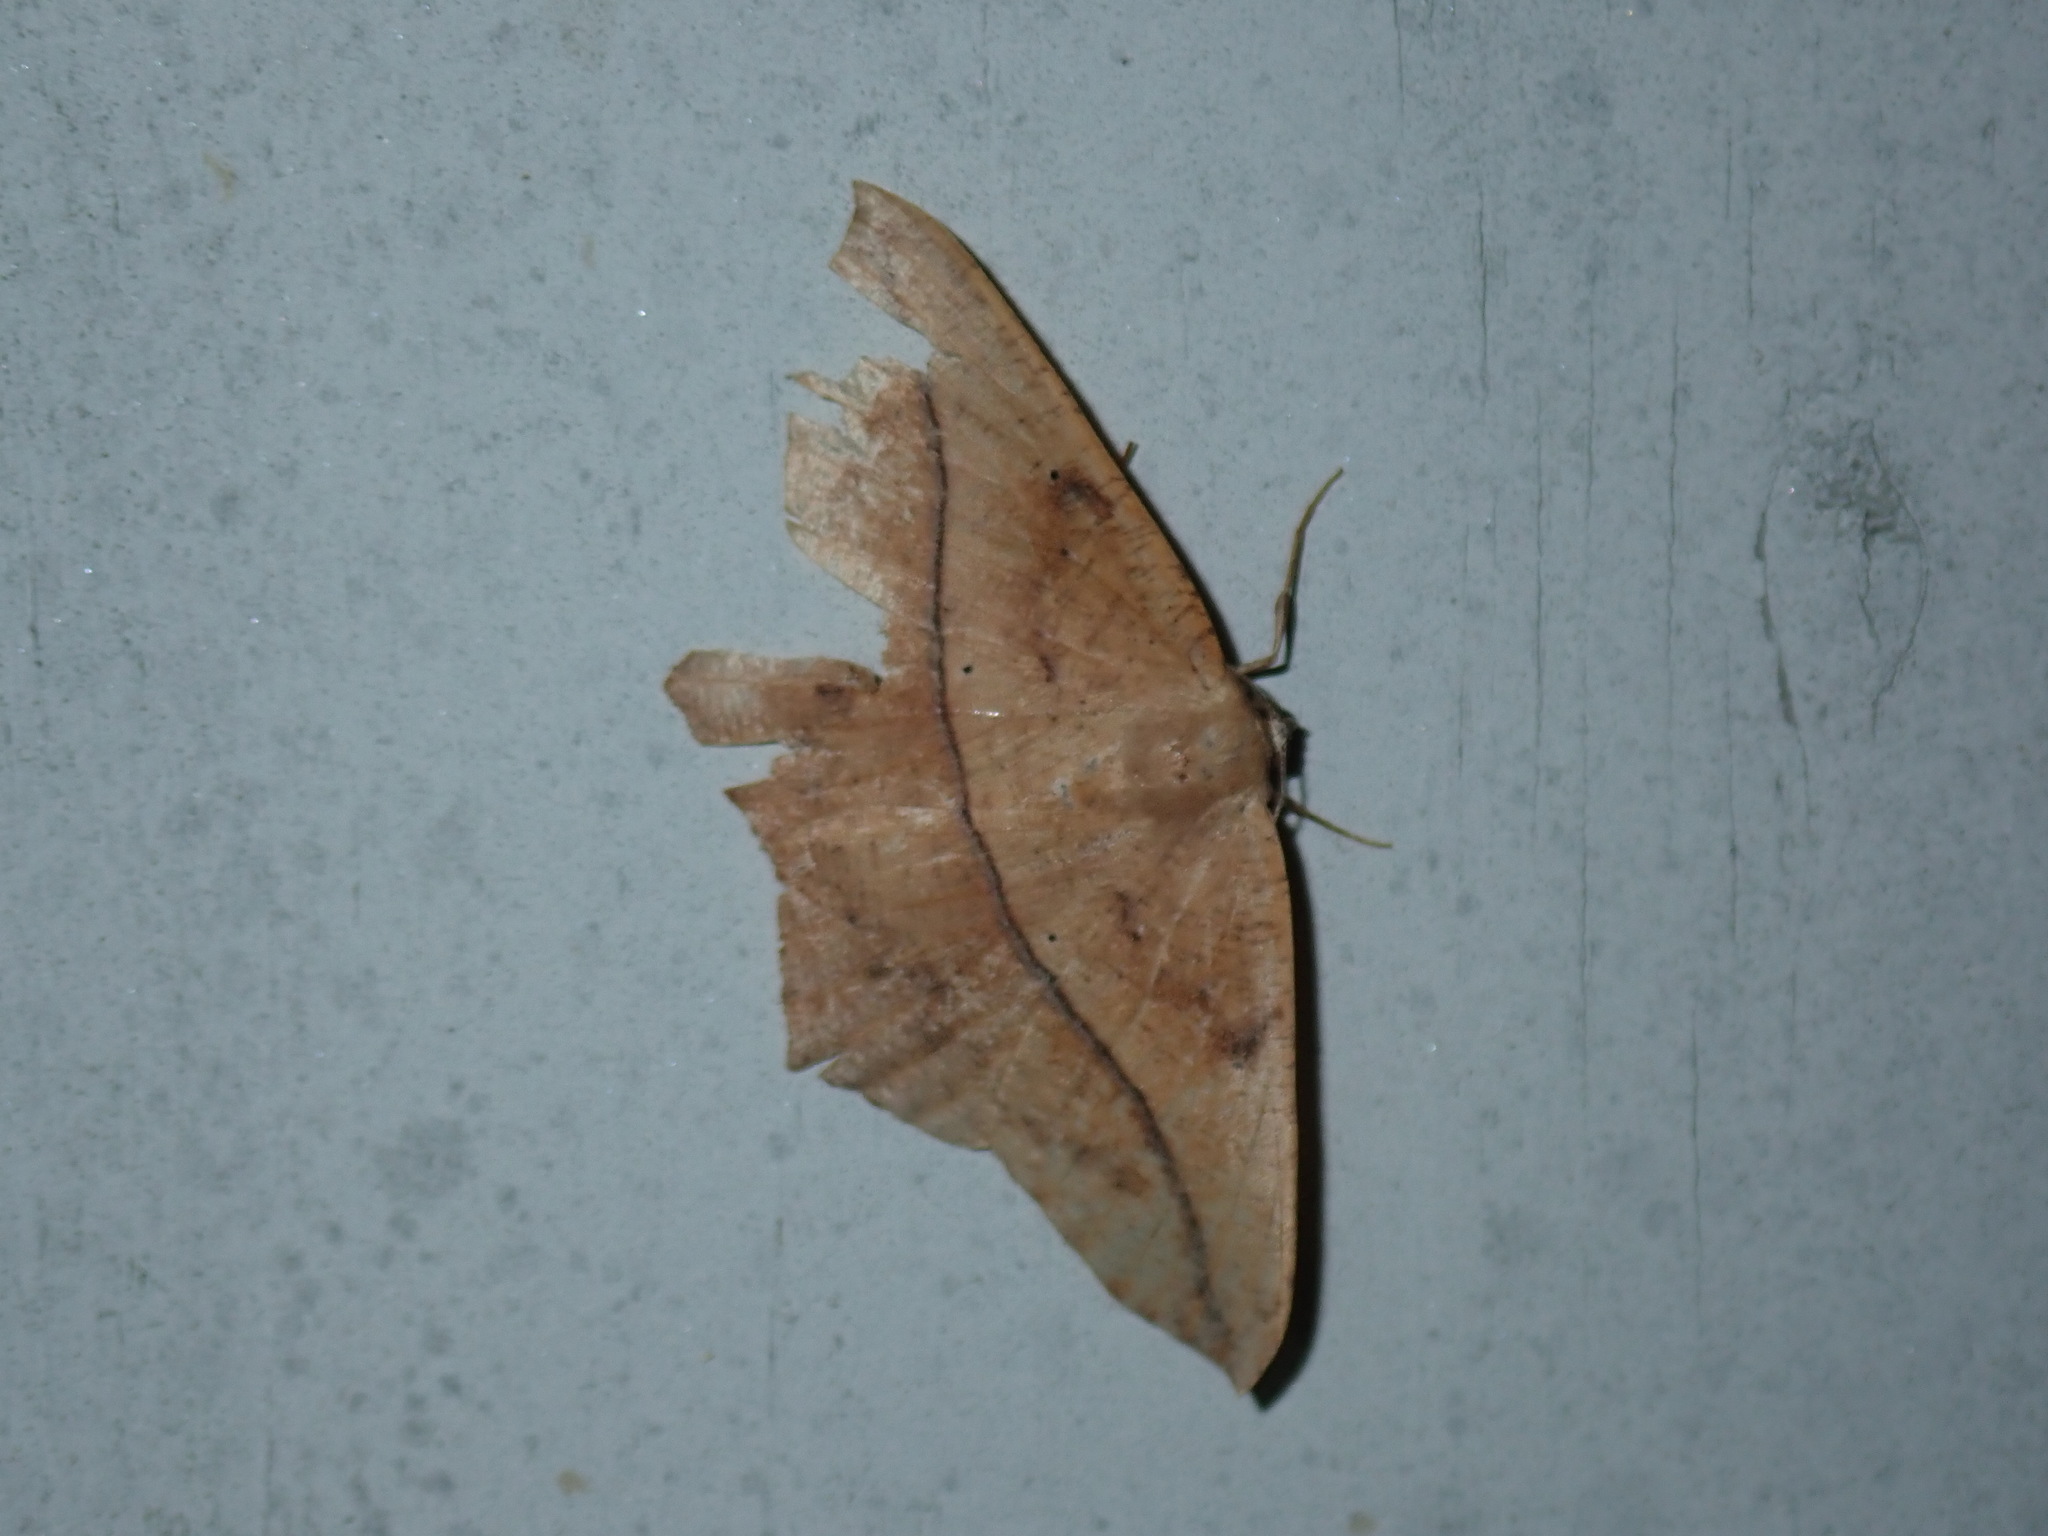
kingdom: Animalia
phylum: Arthropoda
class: Insecta
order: Lepidoptera
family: Geometridae
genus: Prochoerodes
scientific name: Prochoerodes lineola
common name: Large maple spanworm
